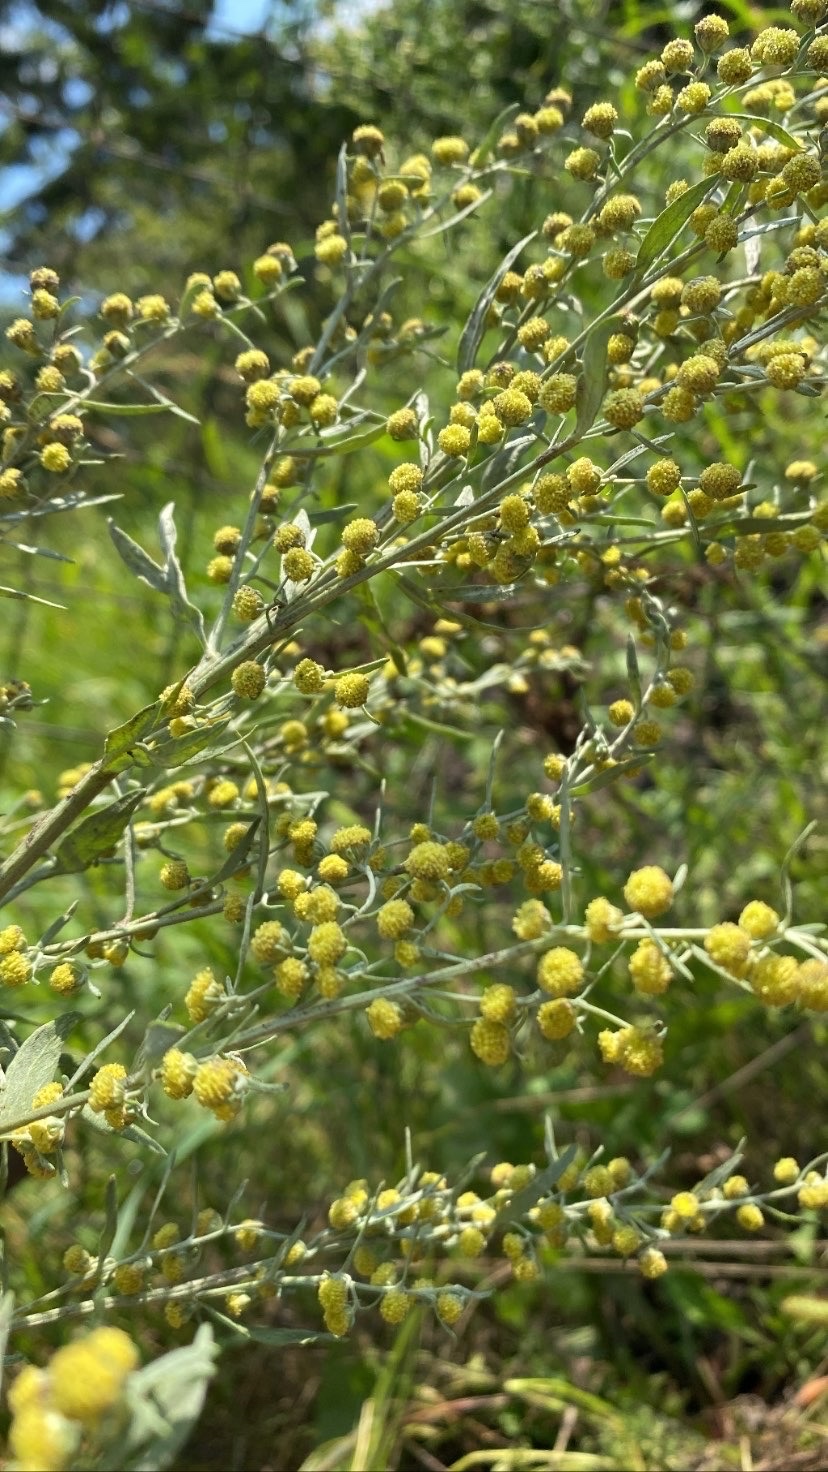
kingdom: Plantae
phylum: Tracheophyta
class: Magnoliopsida
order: Asterales
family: Asteraceae
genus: Artemisia
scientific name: Artemisia absinthium
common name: Wormwood
